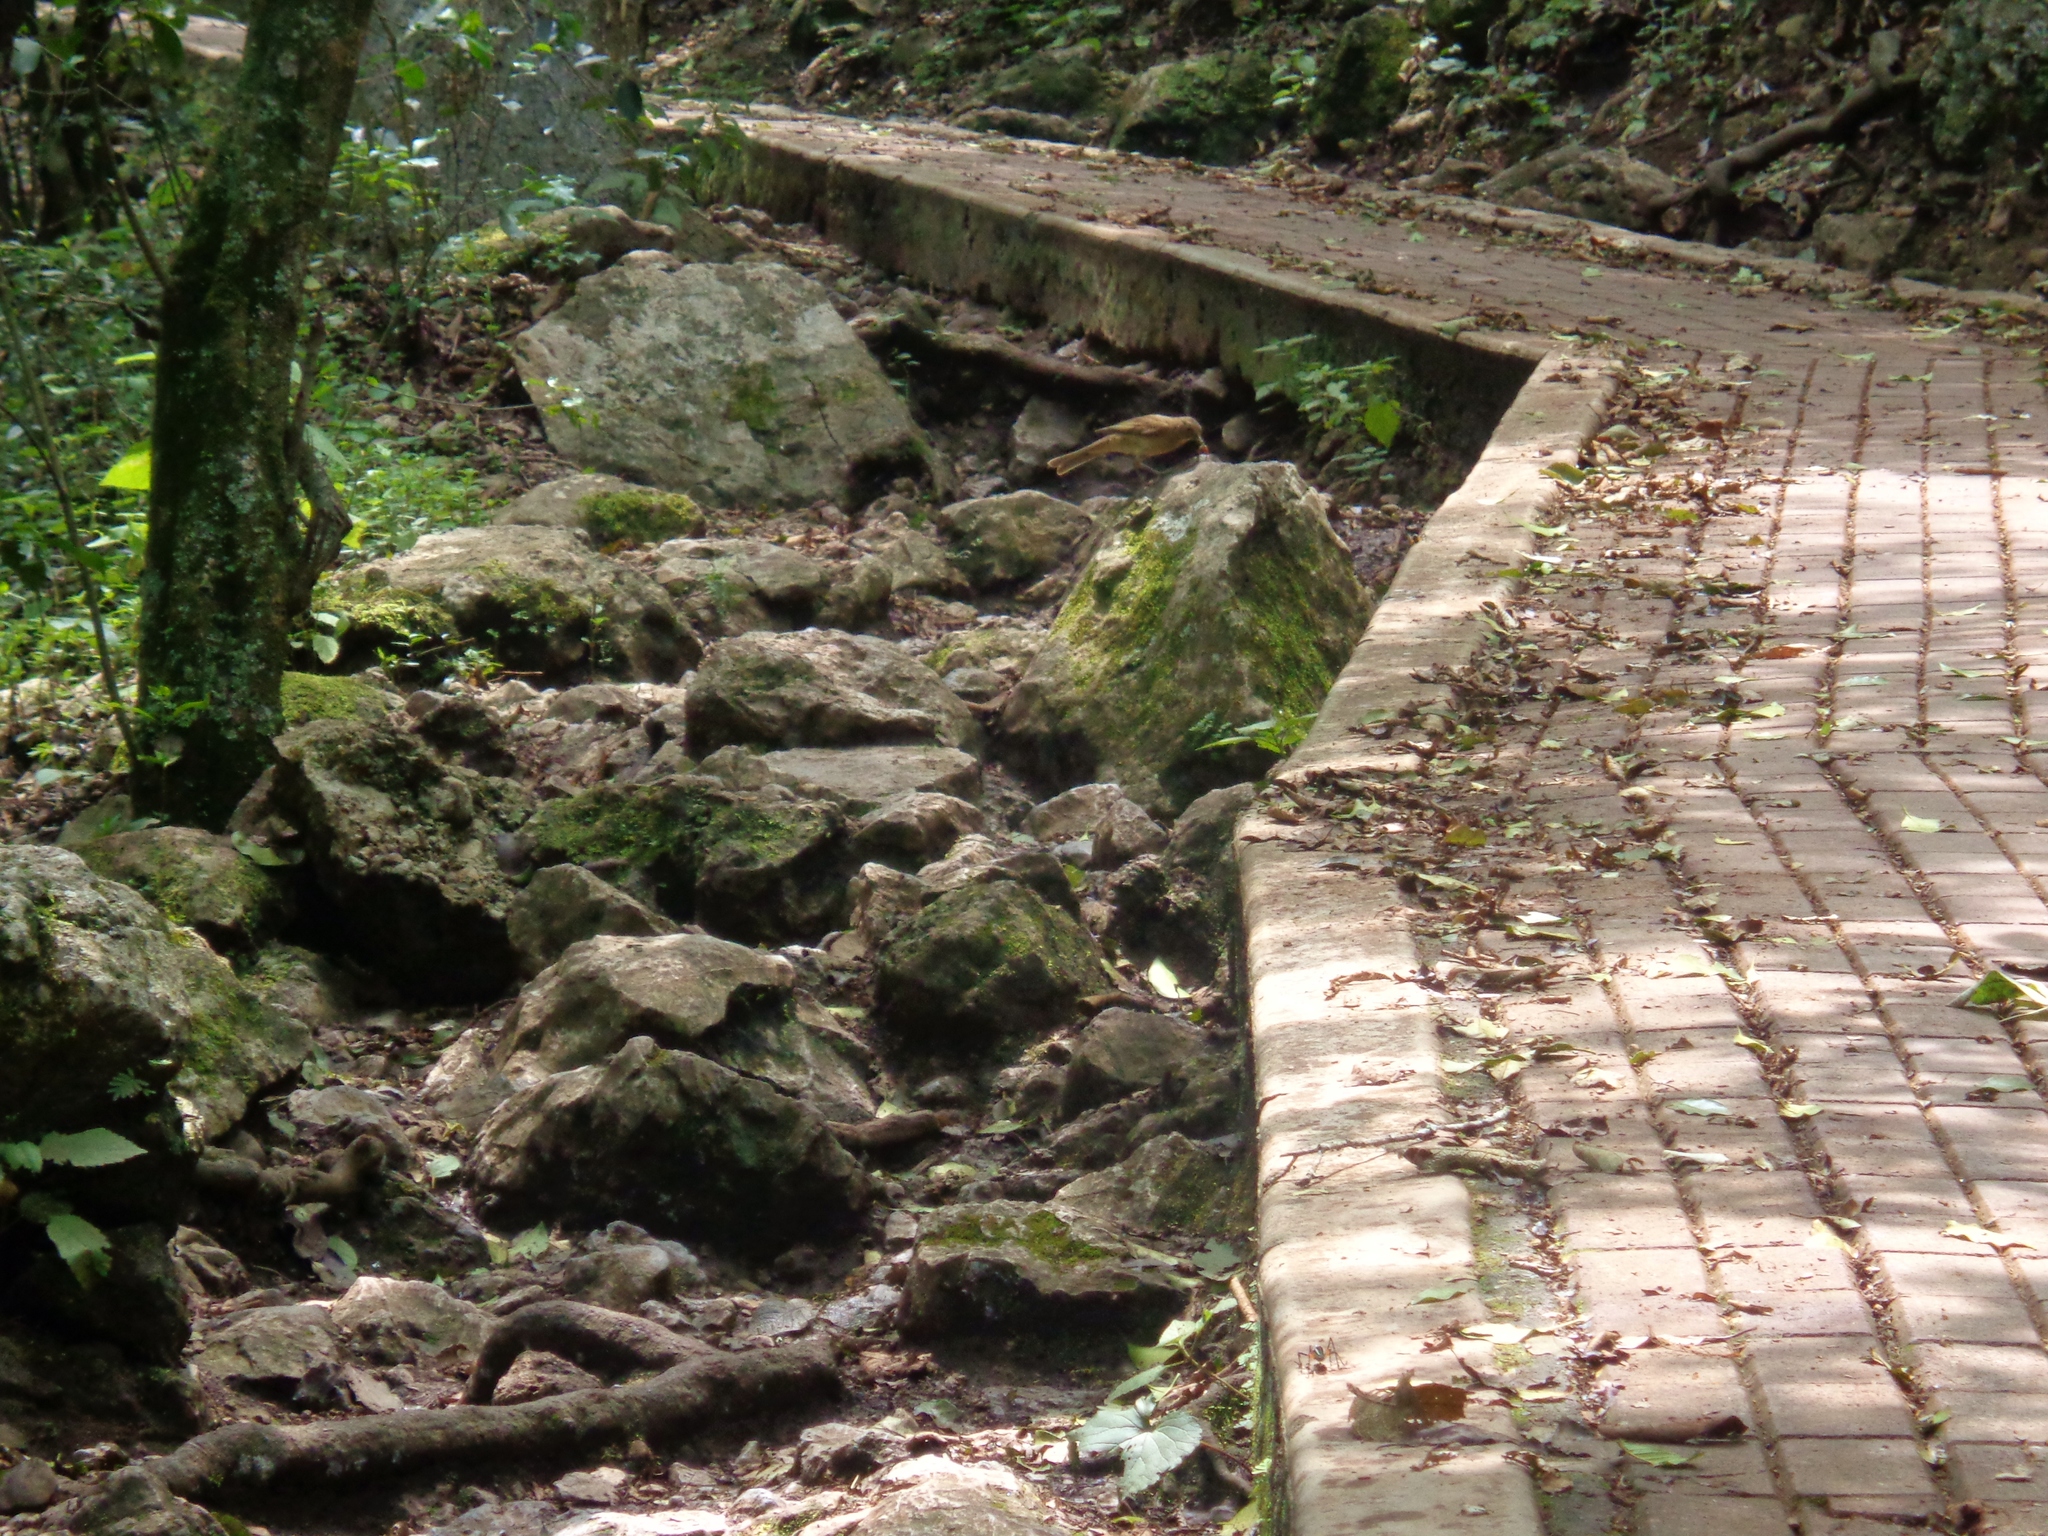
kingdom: Animalia
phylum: Chordata
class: Aves
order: Passeriformes
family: Turdidae
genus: Turdus
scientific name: Turdus grayi
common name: Clay-colored thrush
